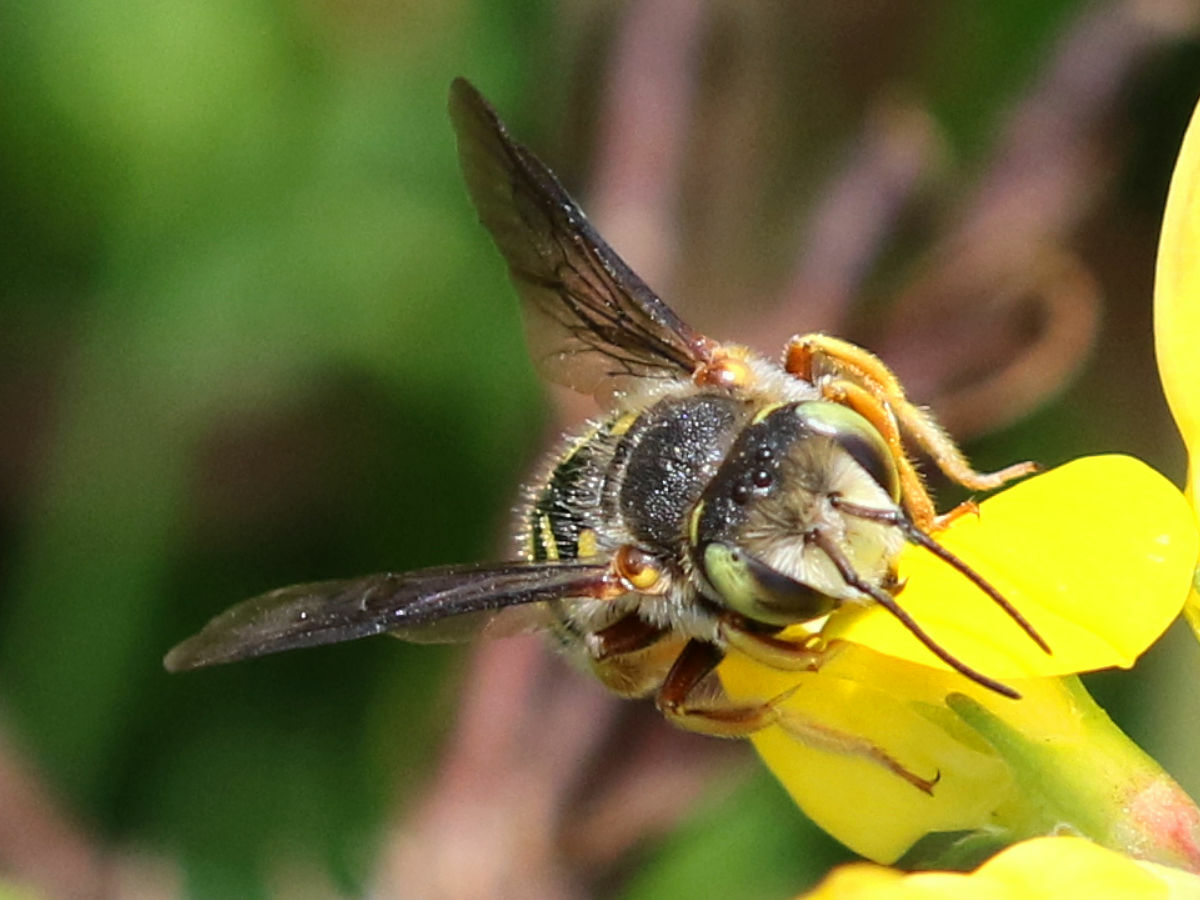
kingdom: Animalia
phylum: Arthropoda
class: Insecta
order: Hymenoptera
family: Megachilidae
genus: Anthidium
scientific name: Anthidium oblongatum
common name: Oblong wool carder bee
